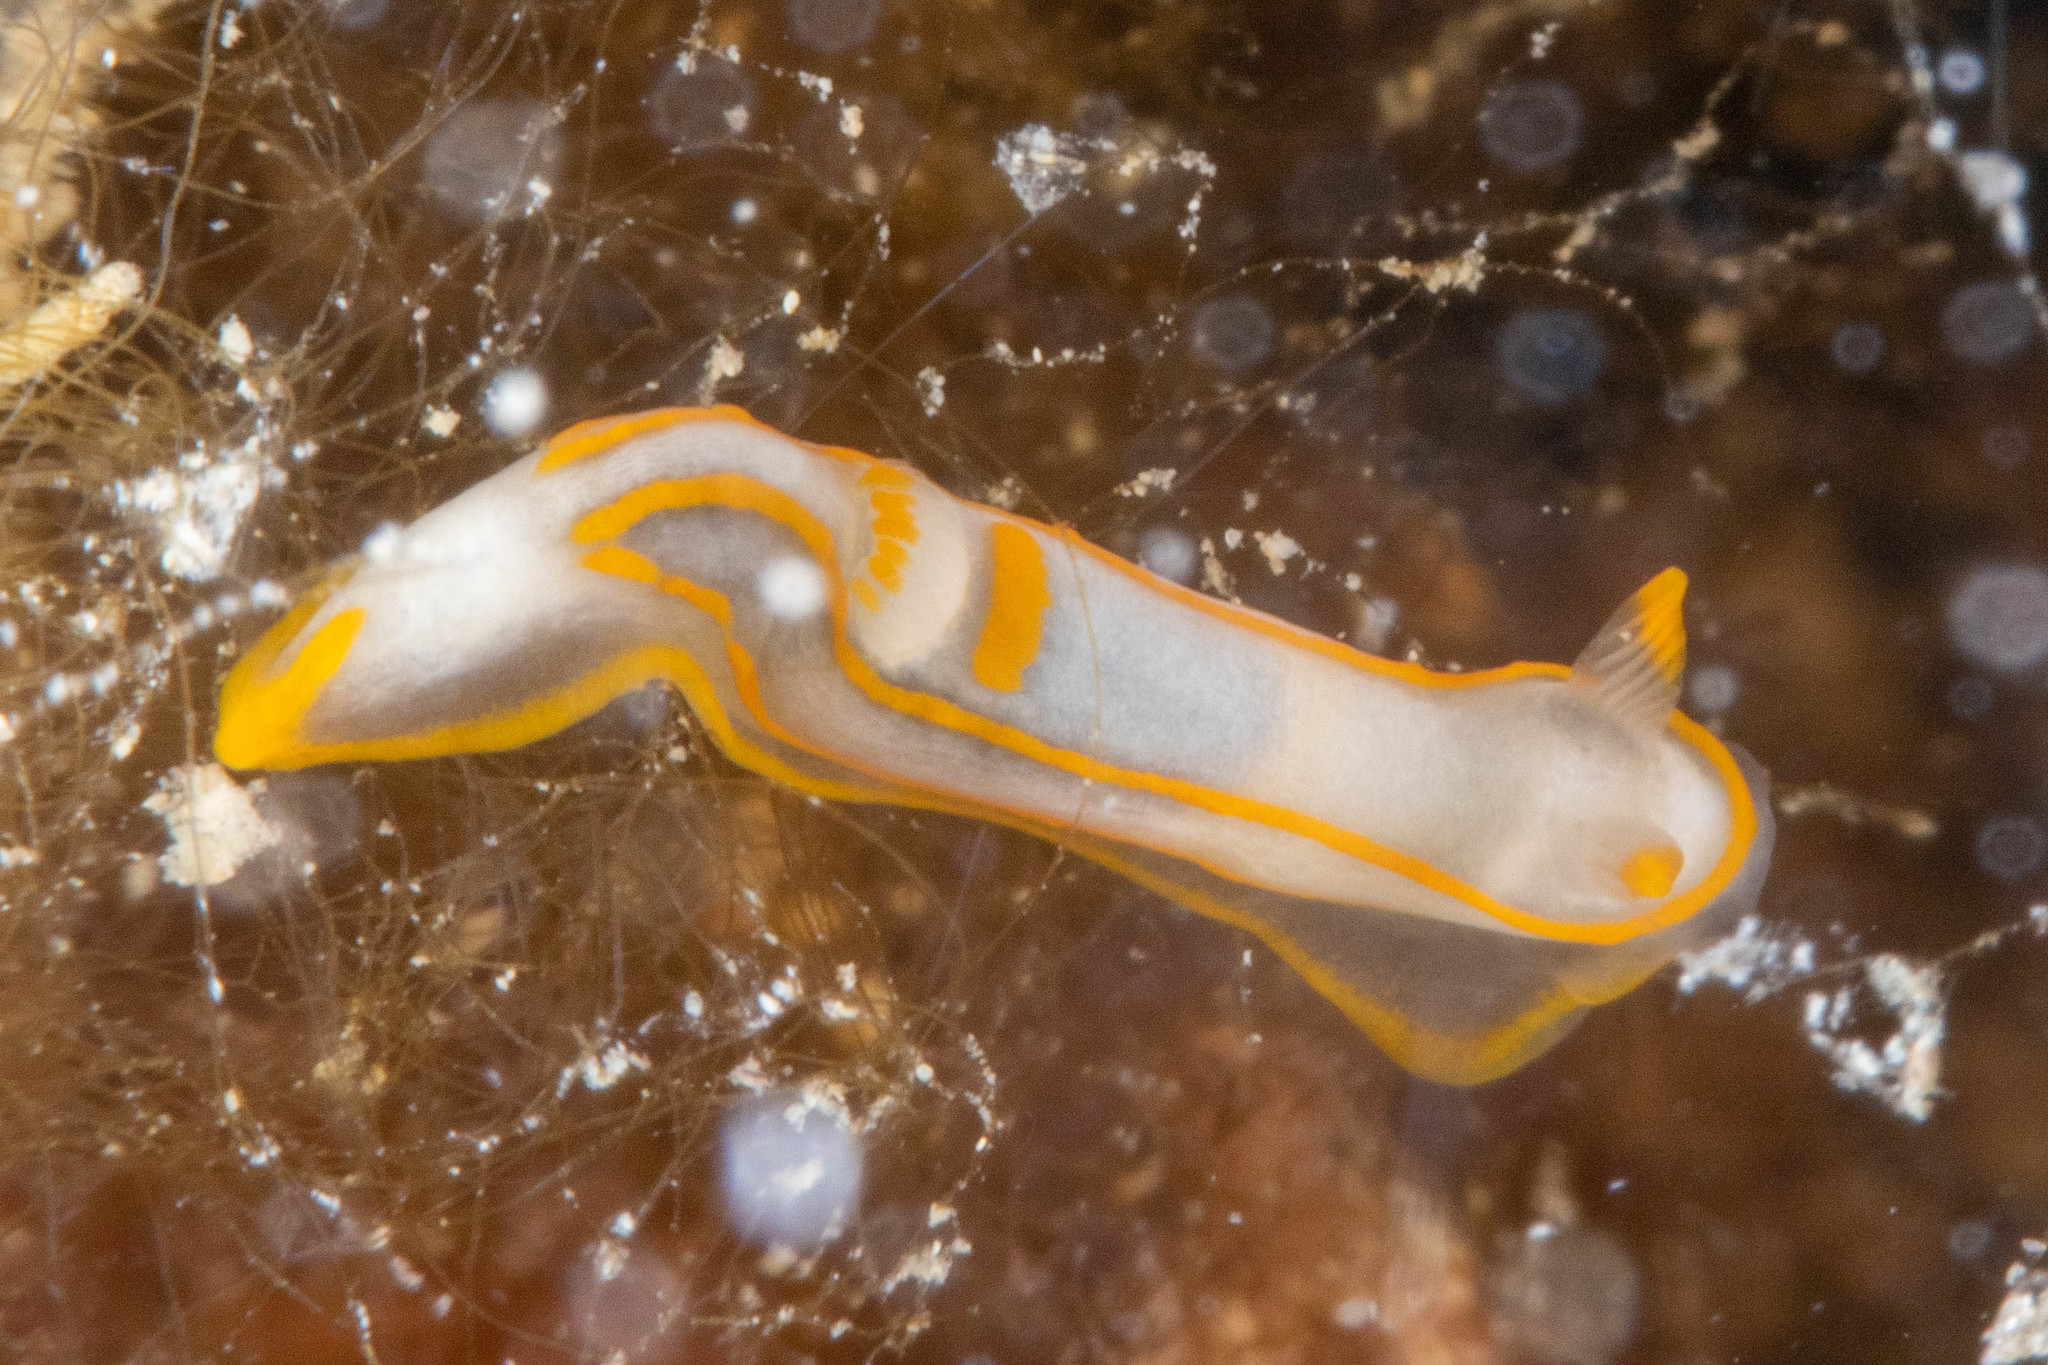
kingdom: Animalia
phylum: Mollusca
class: Gastropoda
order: Nudibranchia
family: Polyceridae
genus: Gymnodoris
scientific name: Gymnodoris amakusana
